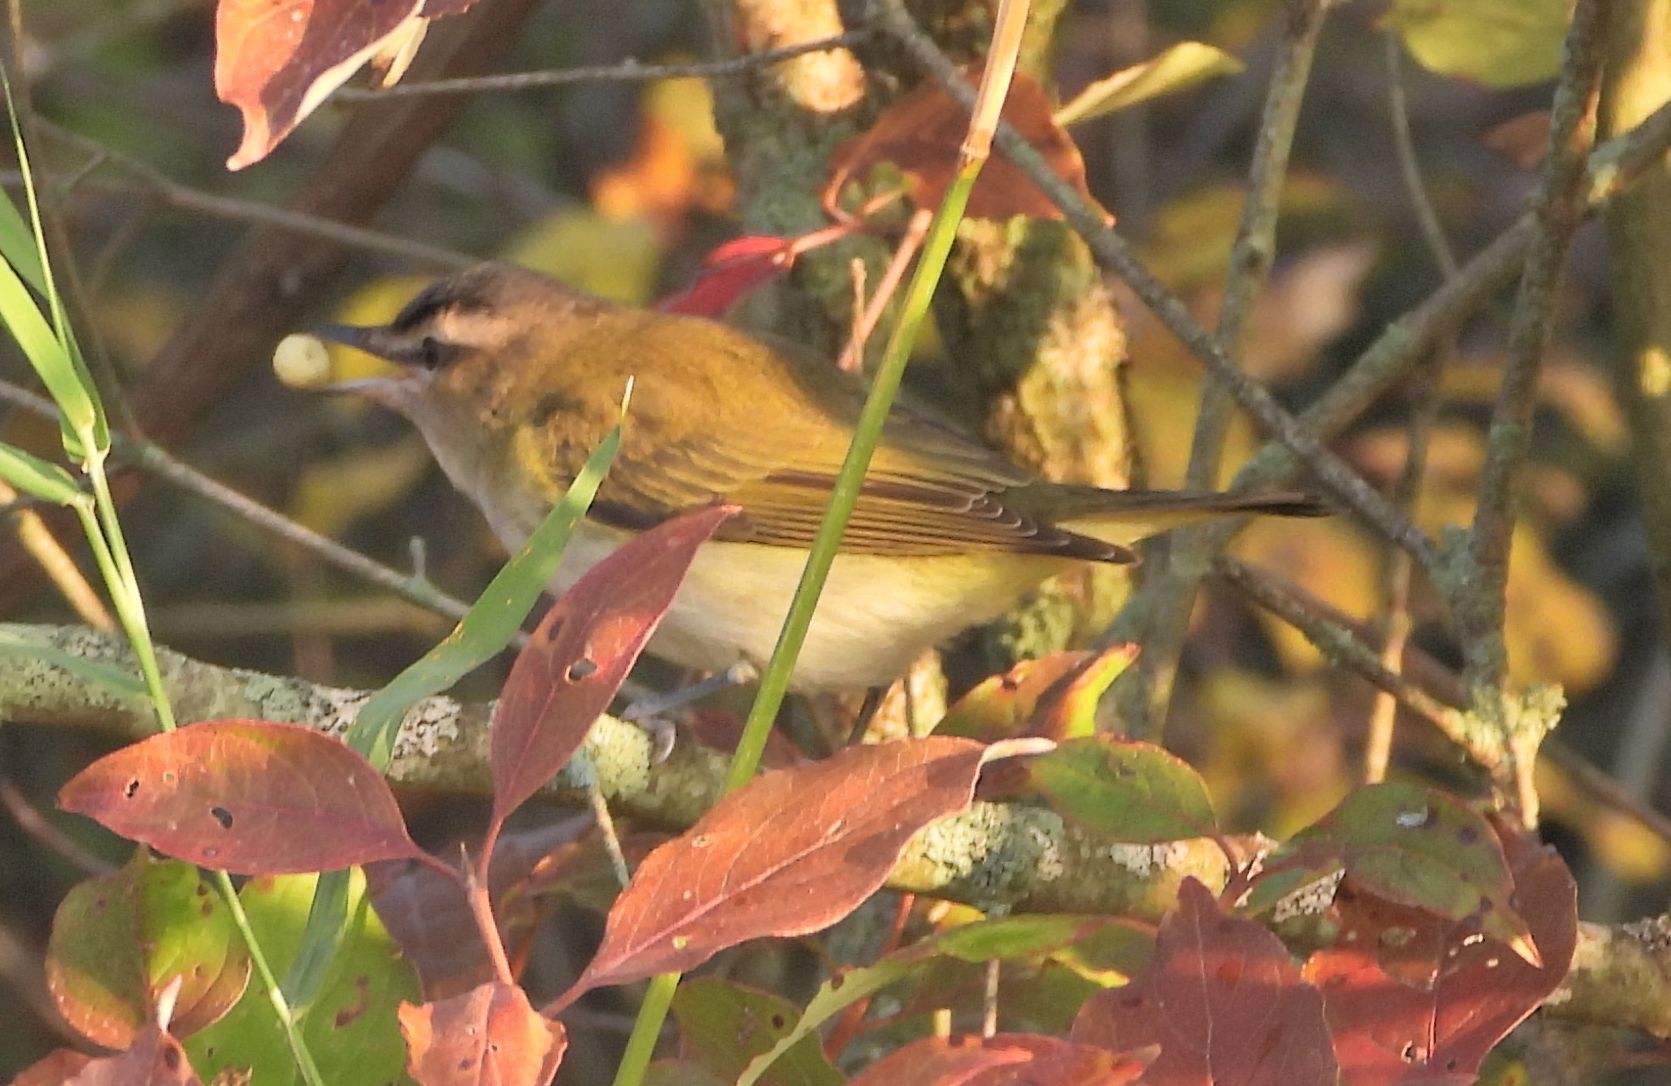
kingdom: Animalia
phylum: Chordata
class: Aves
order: Passeriformes
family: Vireonidae
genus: Vireo
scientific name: Vireo olivaceus
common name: Red-eyed vireo
